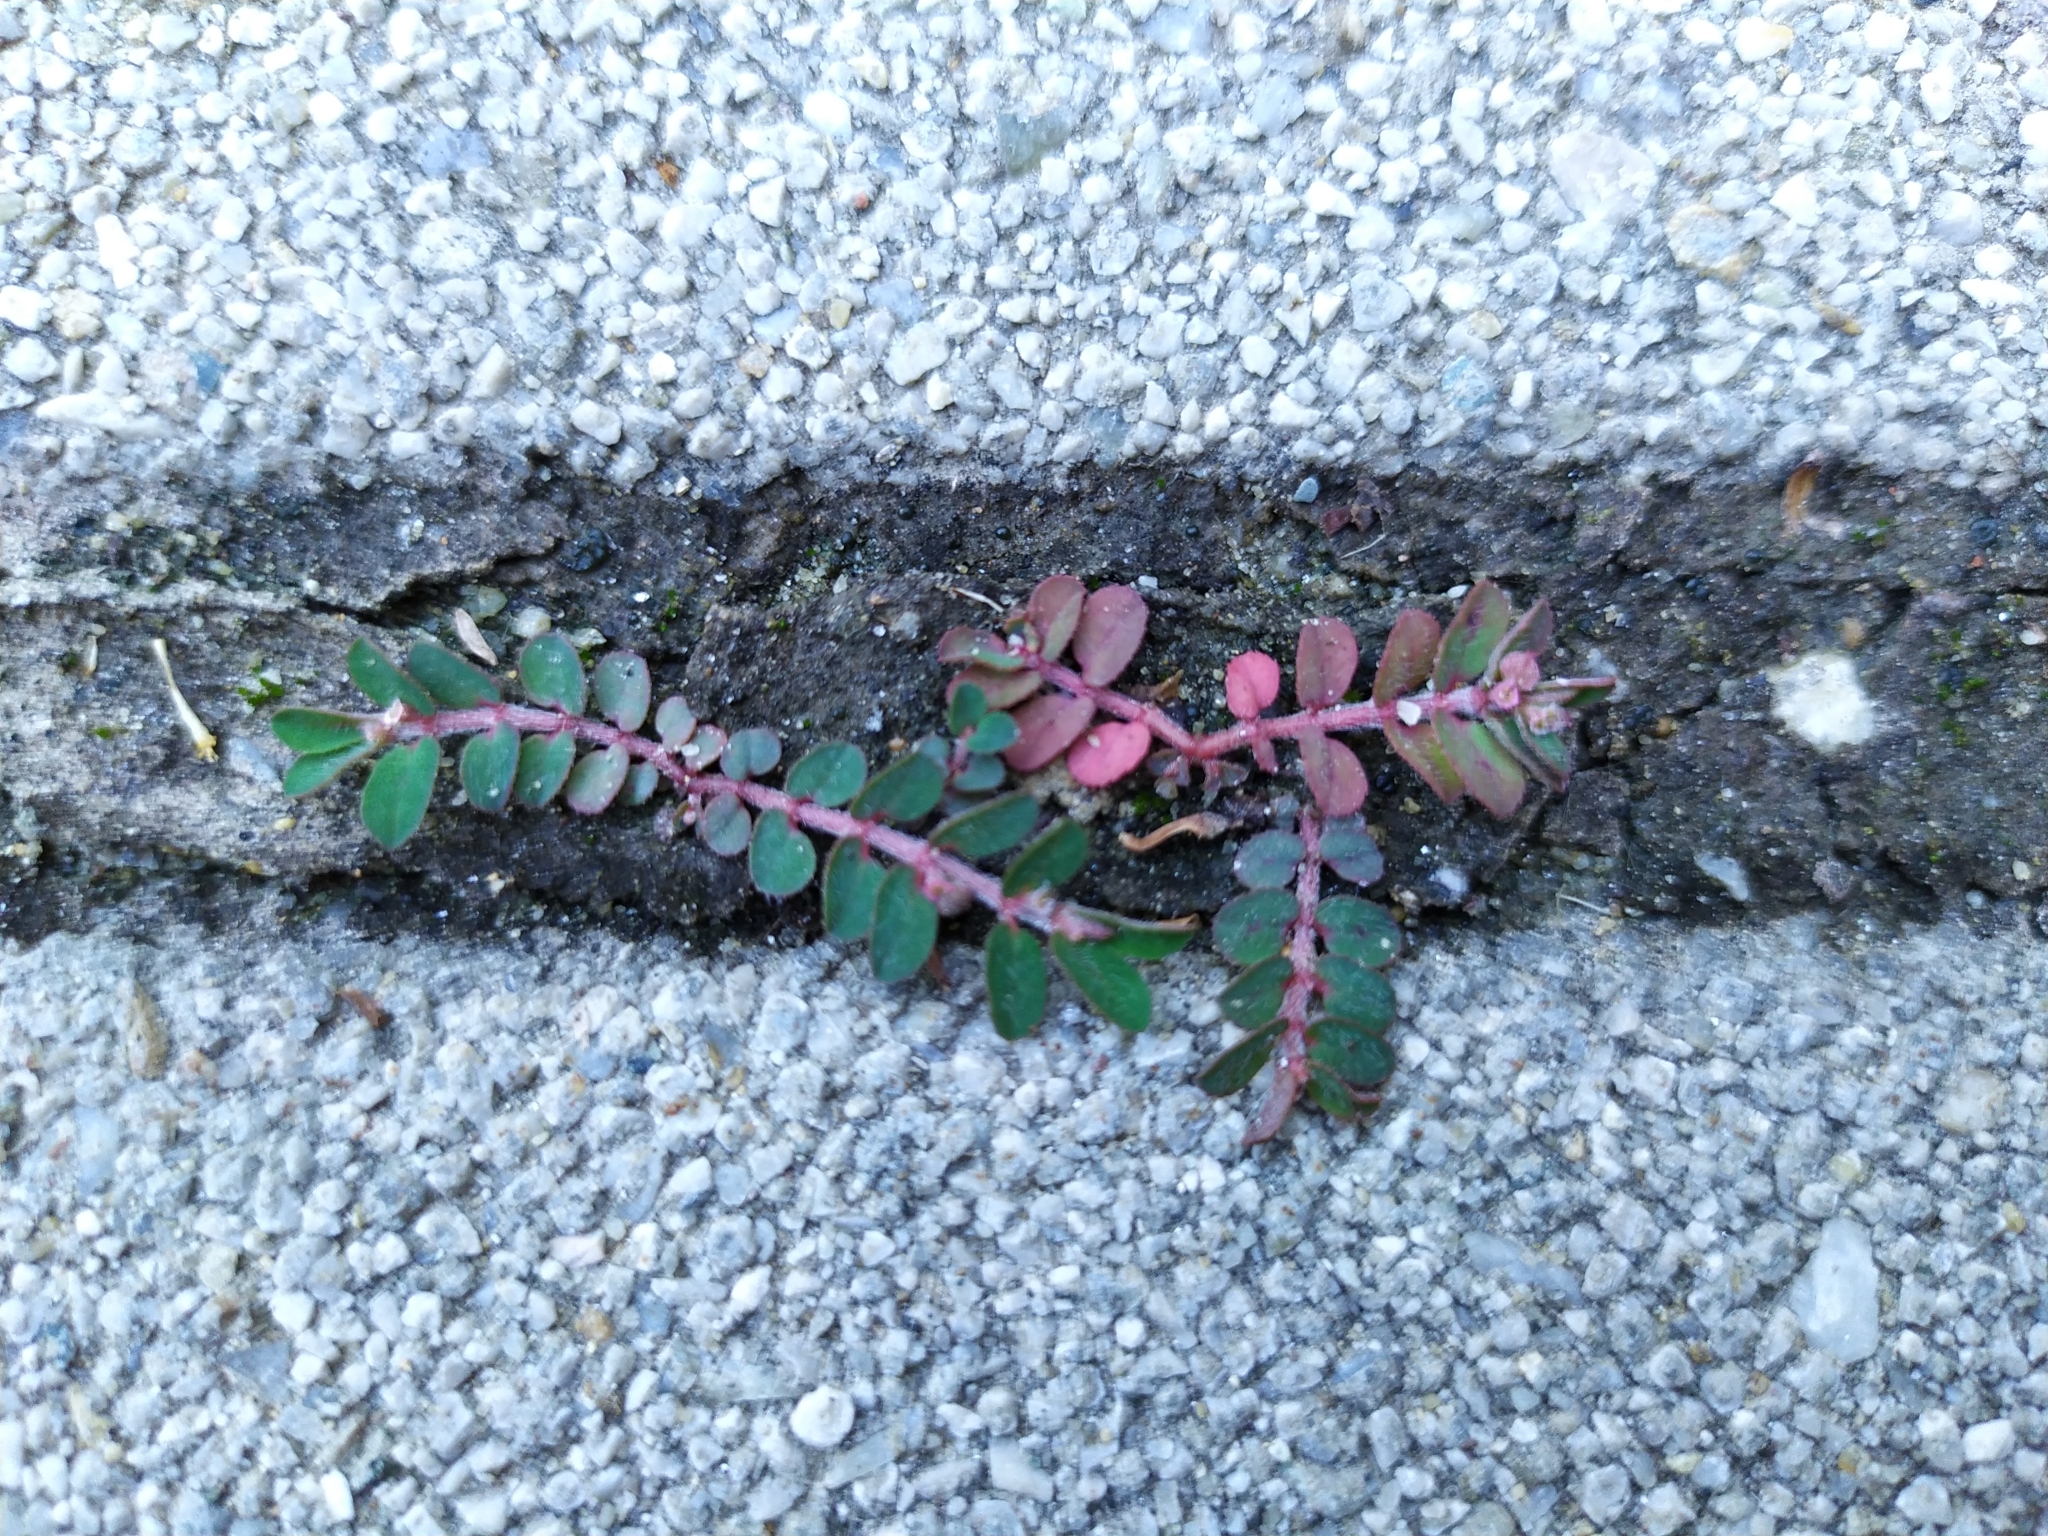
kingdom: Plantae
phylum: Tracheophyta
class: Magnoliopsida
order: Malpighiales
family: Euphorbiaceae
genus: Euphorbia
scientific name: Euphorbia maculata
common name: Spotted spurge
